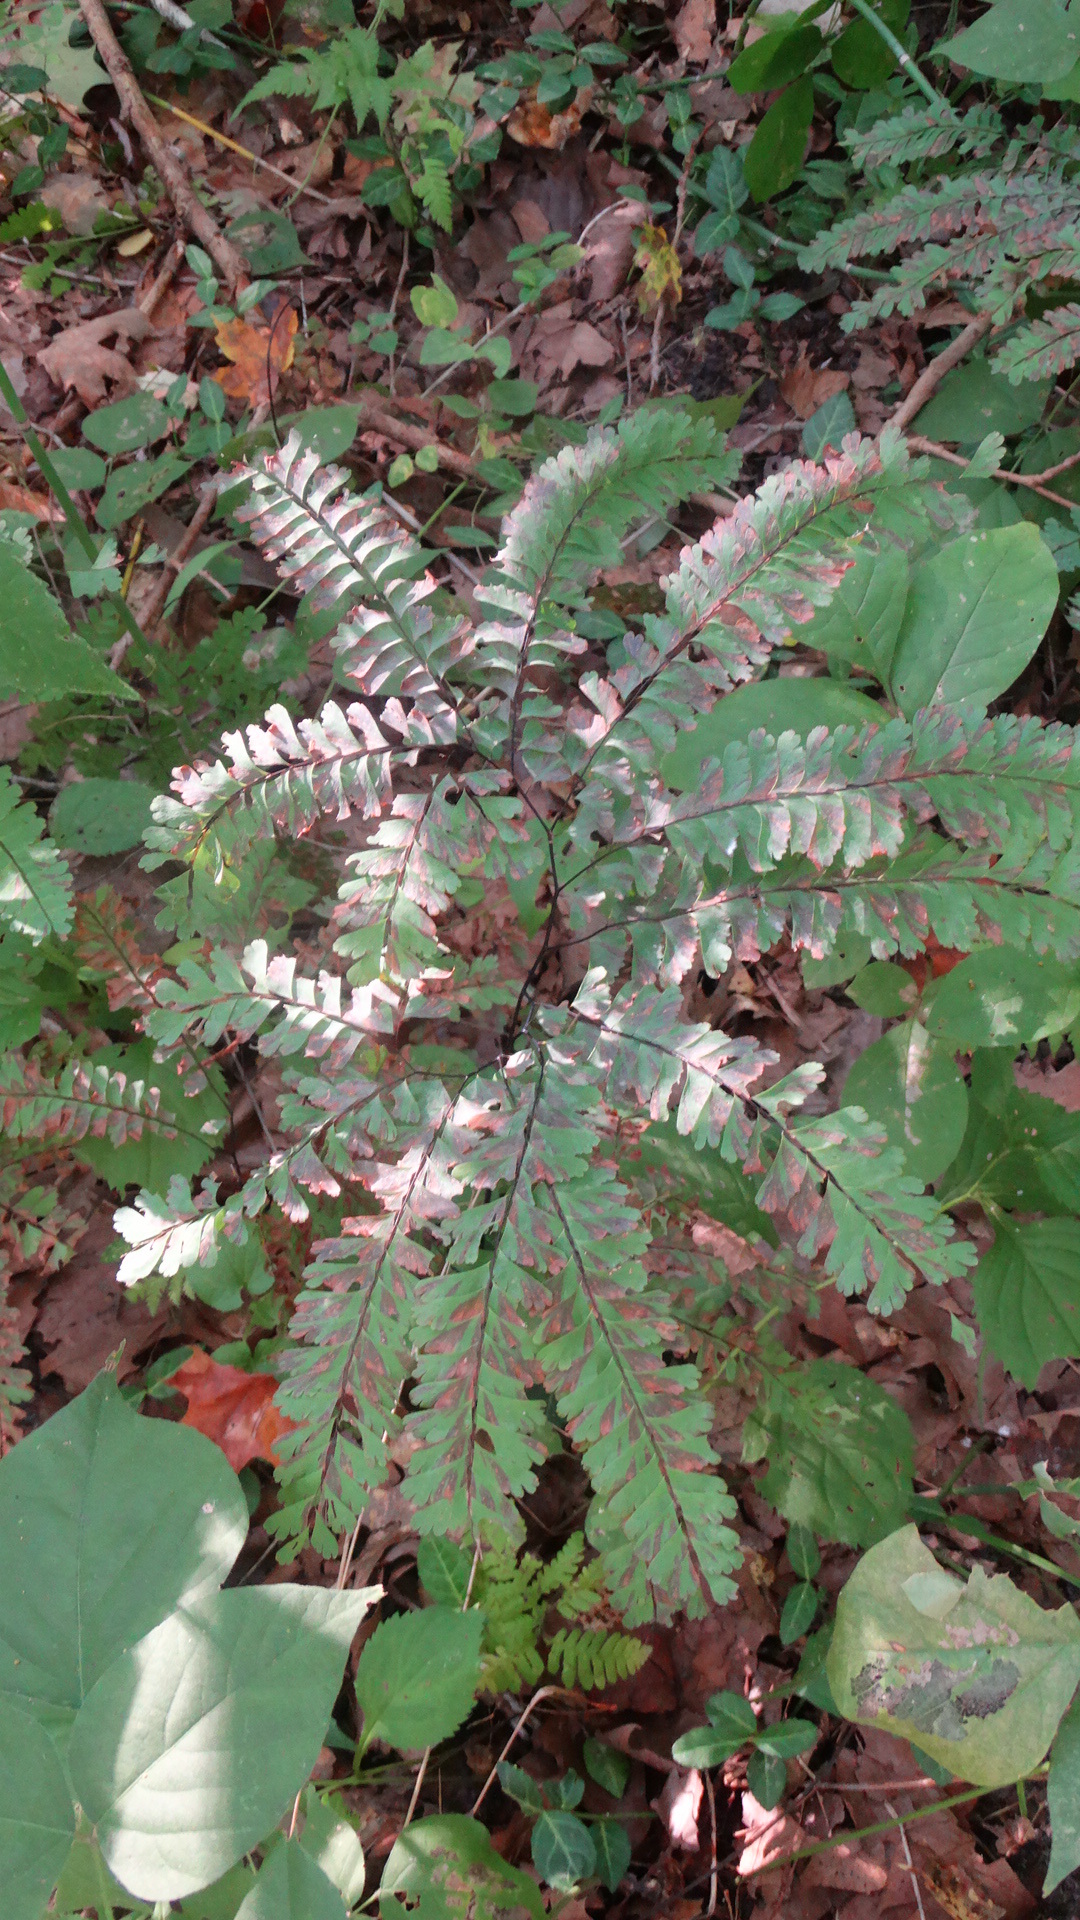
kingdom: Plantae
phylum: Tracheophyta
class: Polypodiopsida
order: Polypodiales
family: Pteridaceae
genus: Adiantum
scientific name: Adiantum pedatum
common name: Five-finger fern
